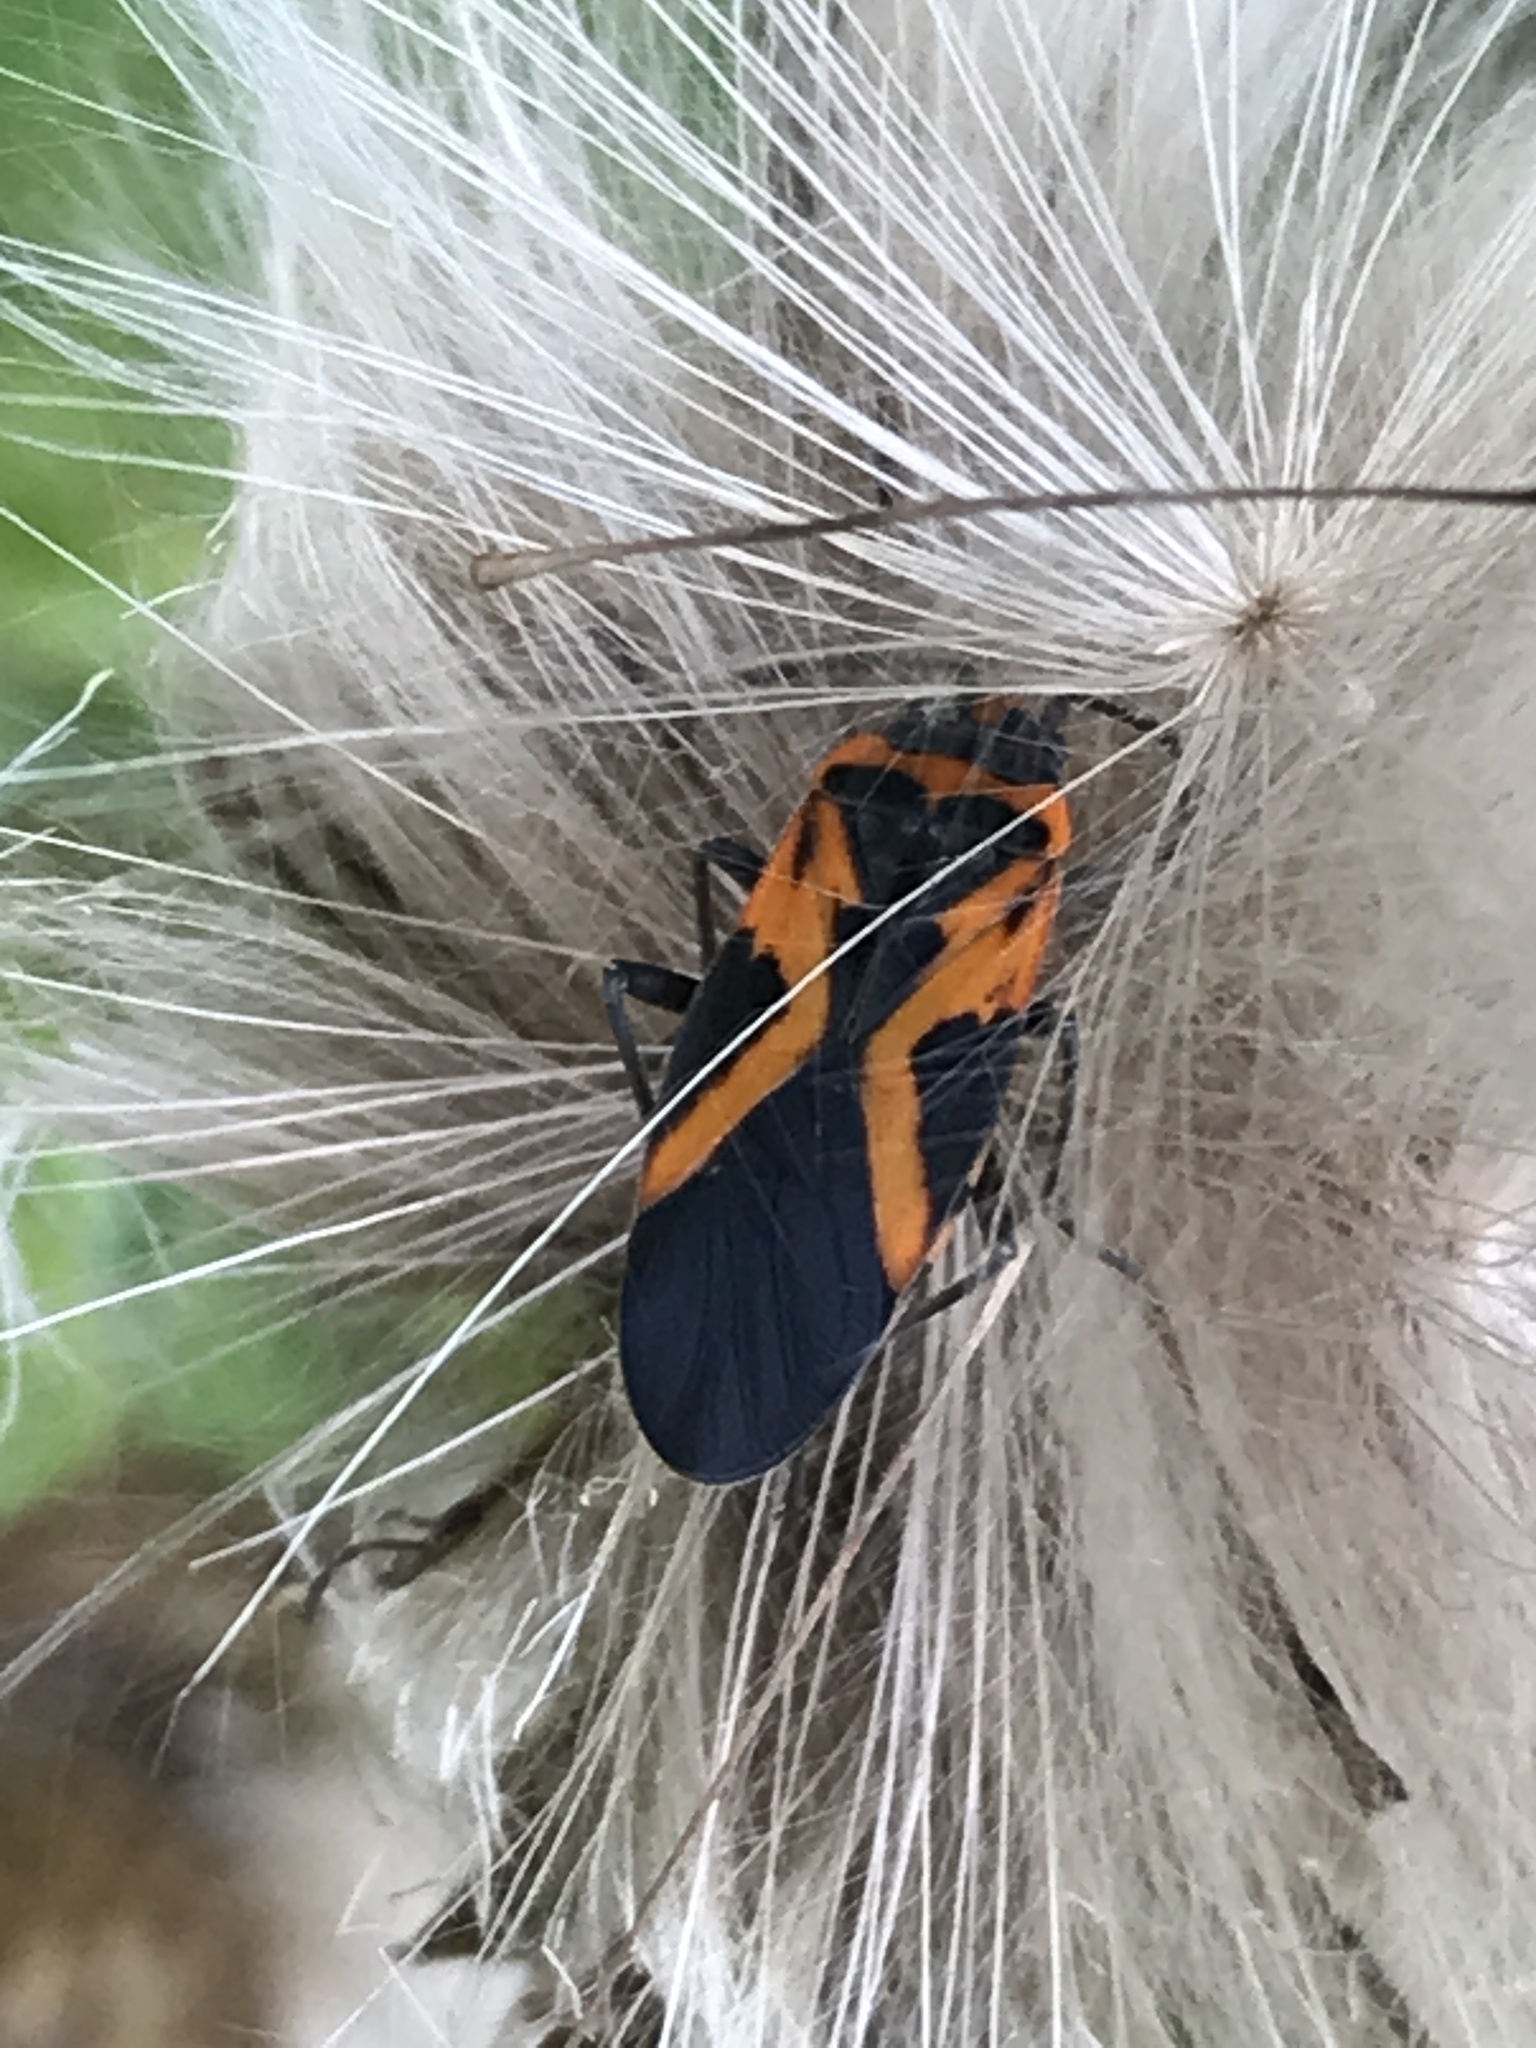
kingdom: Animalia
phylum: Arthropoda
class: Insecta
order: Hemiptera
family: Lygaeidae
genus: Lygaeus
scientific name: Lygaeus turcicus
